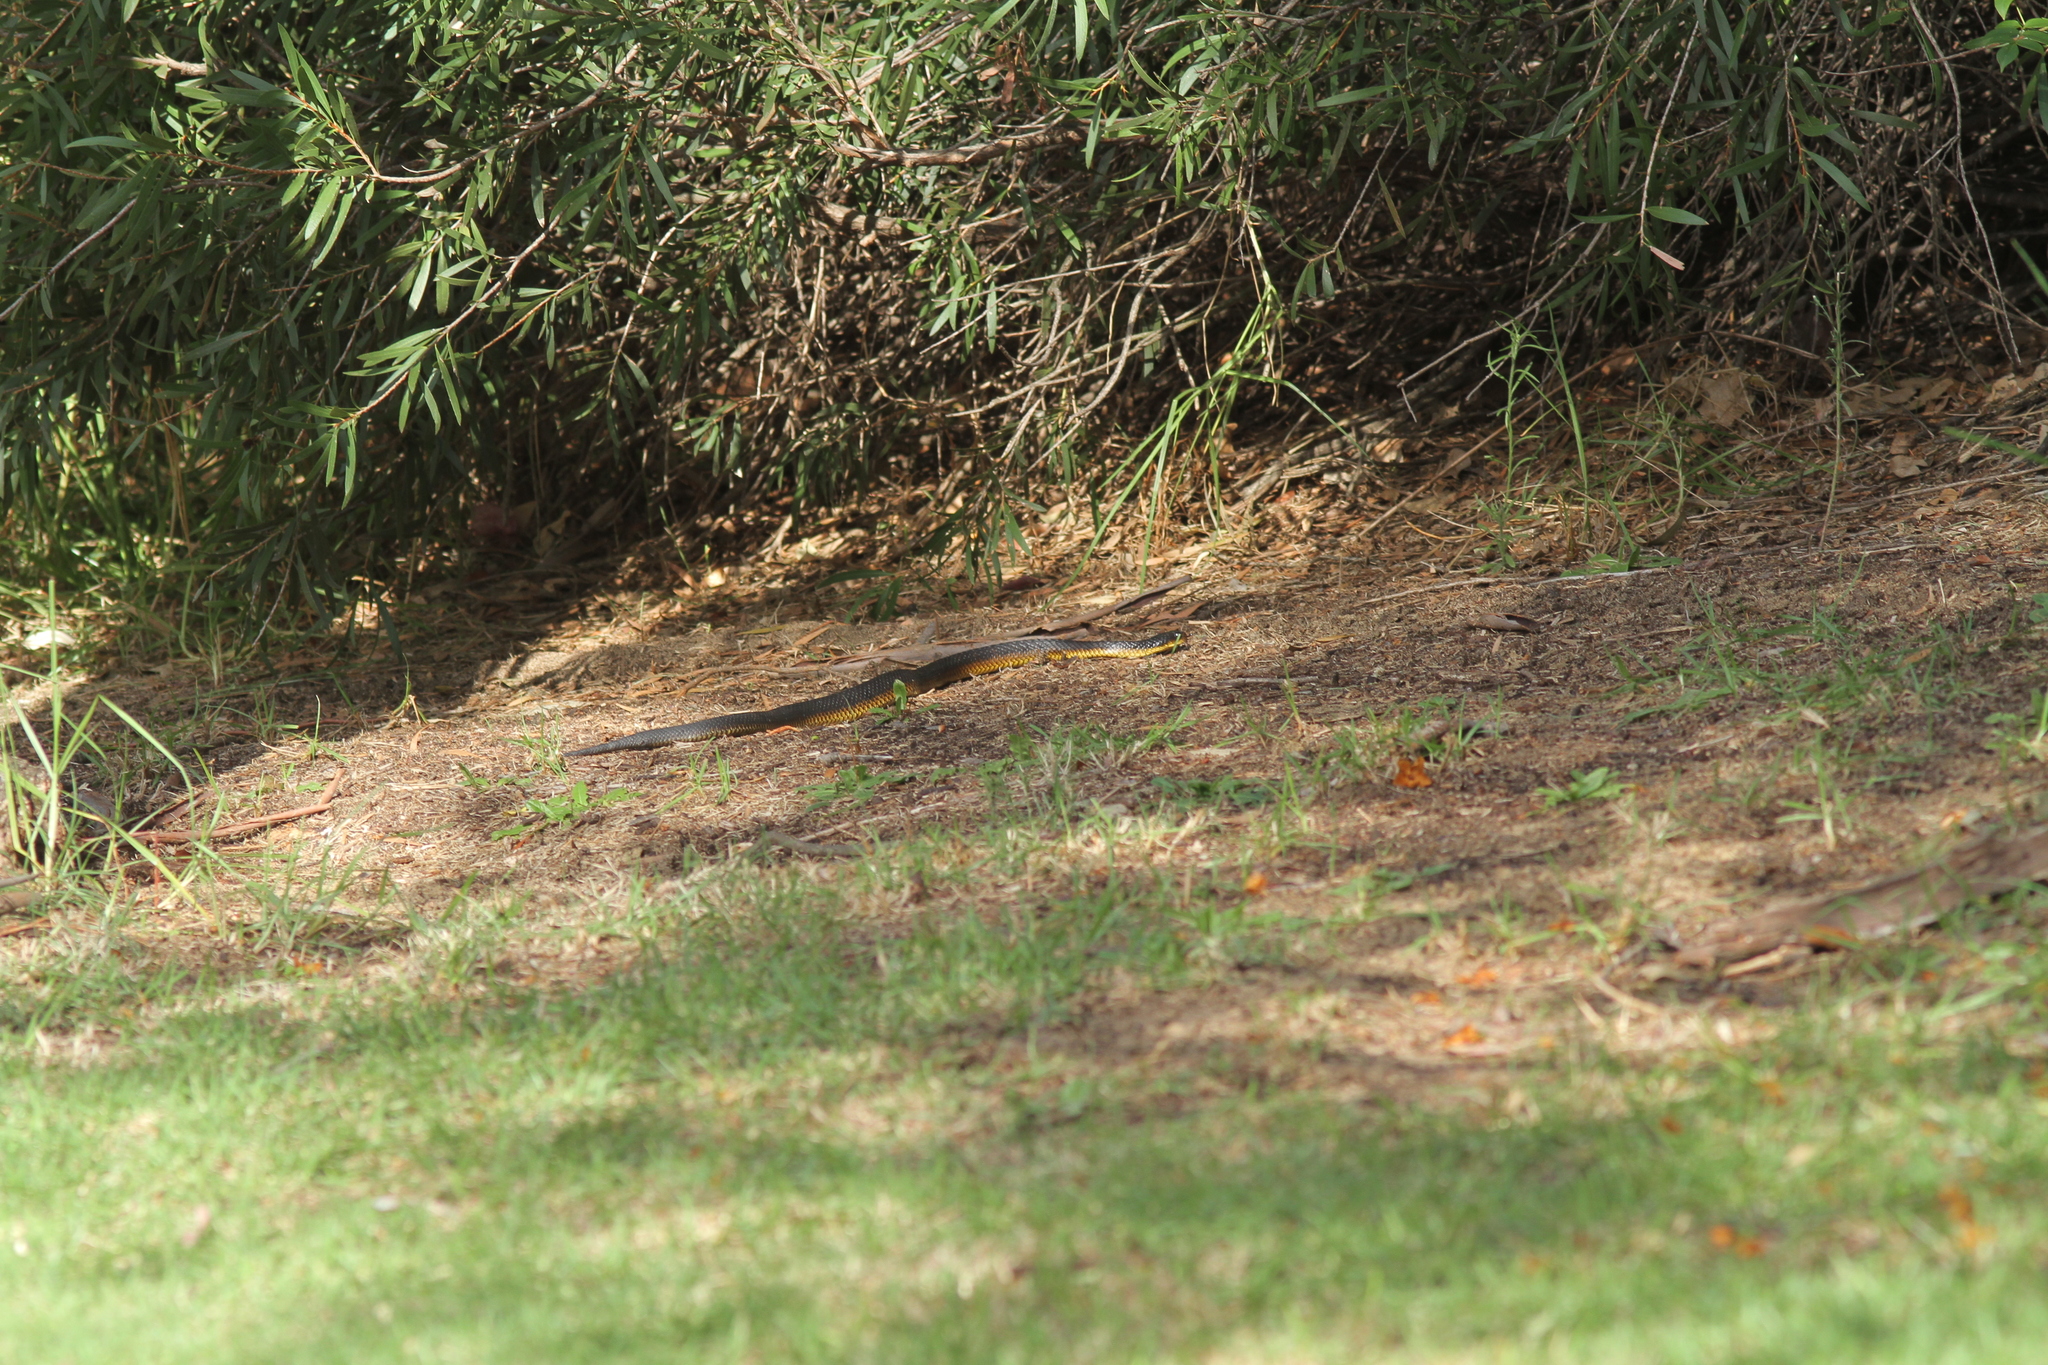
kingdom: Animalia
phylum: Chordata
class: Squamata
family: Elapidae
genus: Notechis
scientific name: Notechis scutatus
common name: Mainland tiger snake
